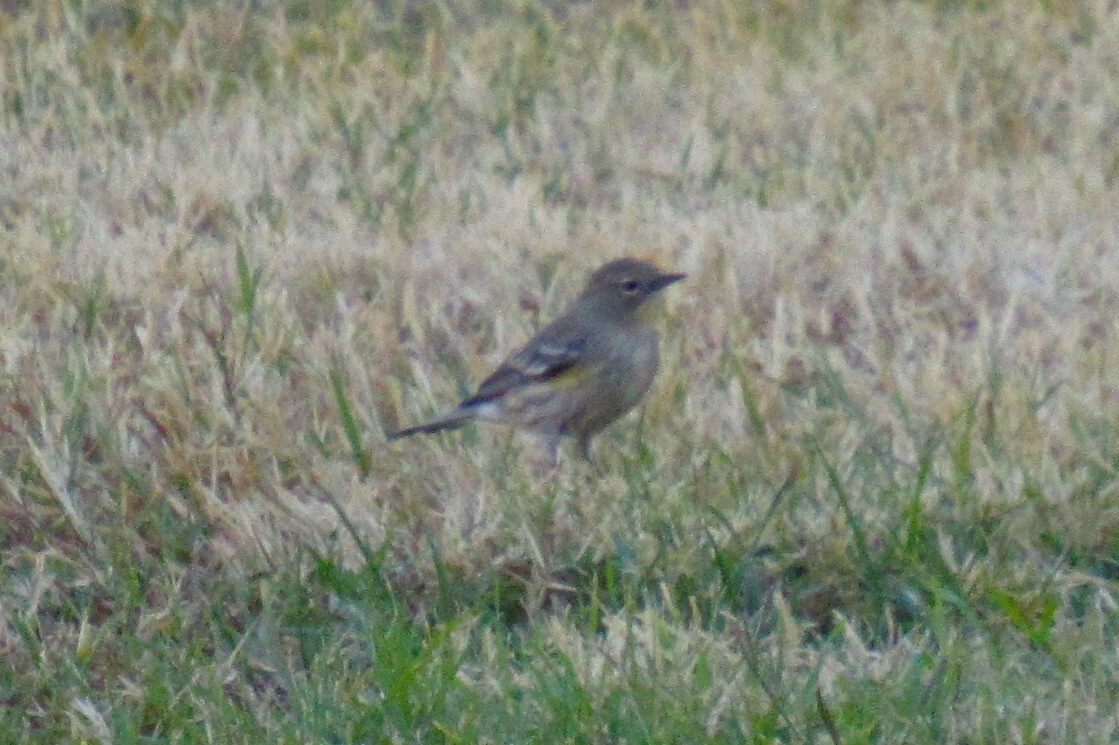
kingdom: Animalia
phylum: Chordata
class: Aves
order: Passeriformes
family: Parulidae
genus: Setophaga
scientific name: Setophaga auduboni
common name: Audubon's warbler
